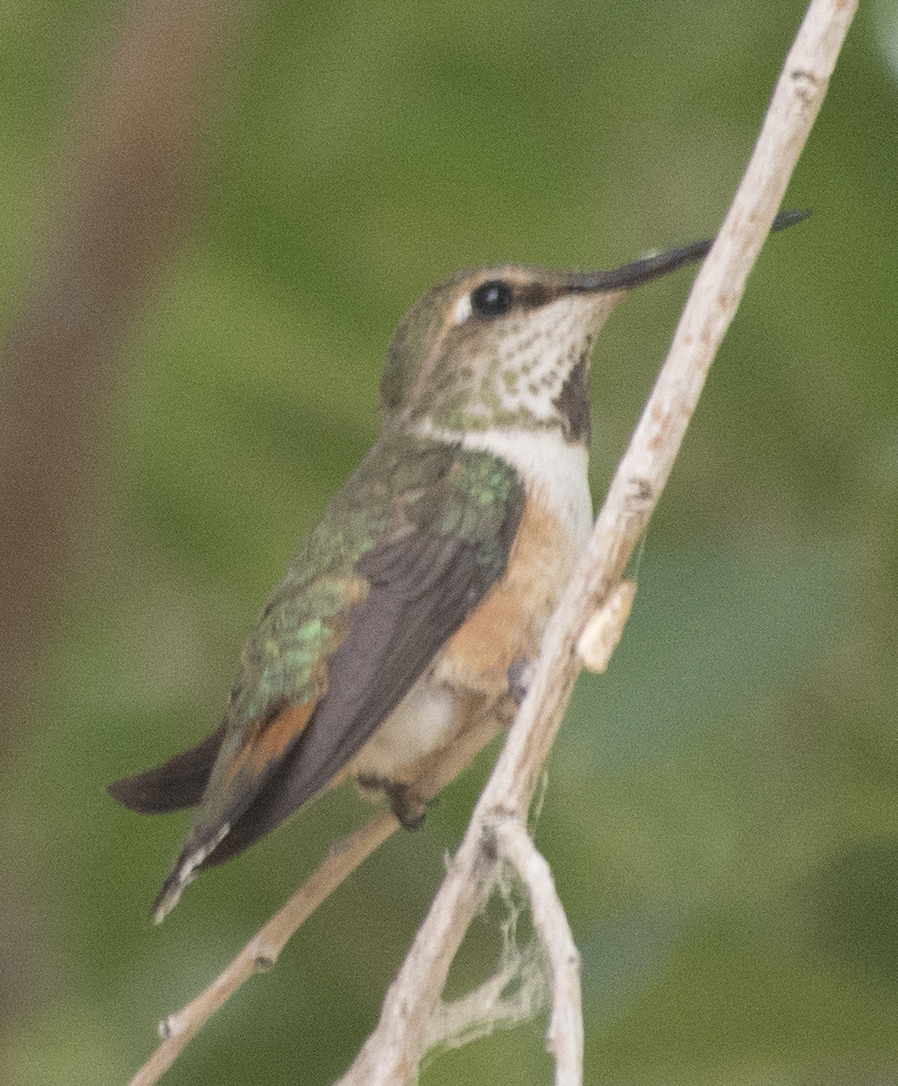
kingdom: Animalia
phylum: Chordata
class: Aves
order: Apodiformes
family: Trochilidae
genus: Selasphorus
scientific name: Selasphorus platycercus
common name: Broad-tailed hummingbird
